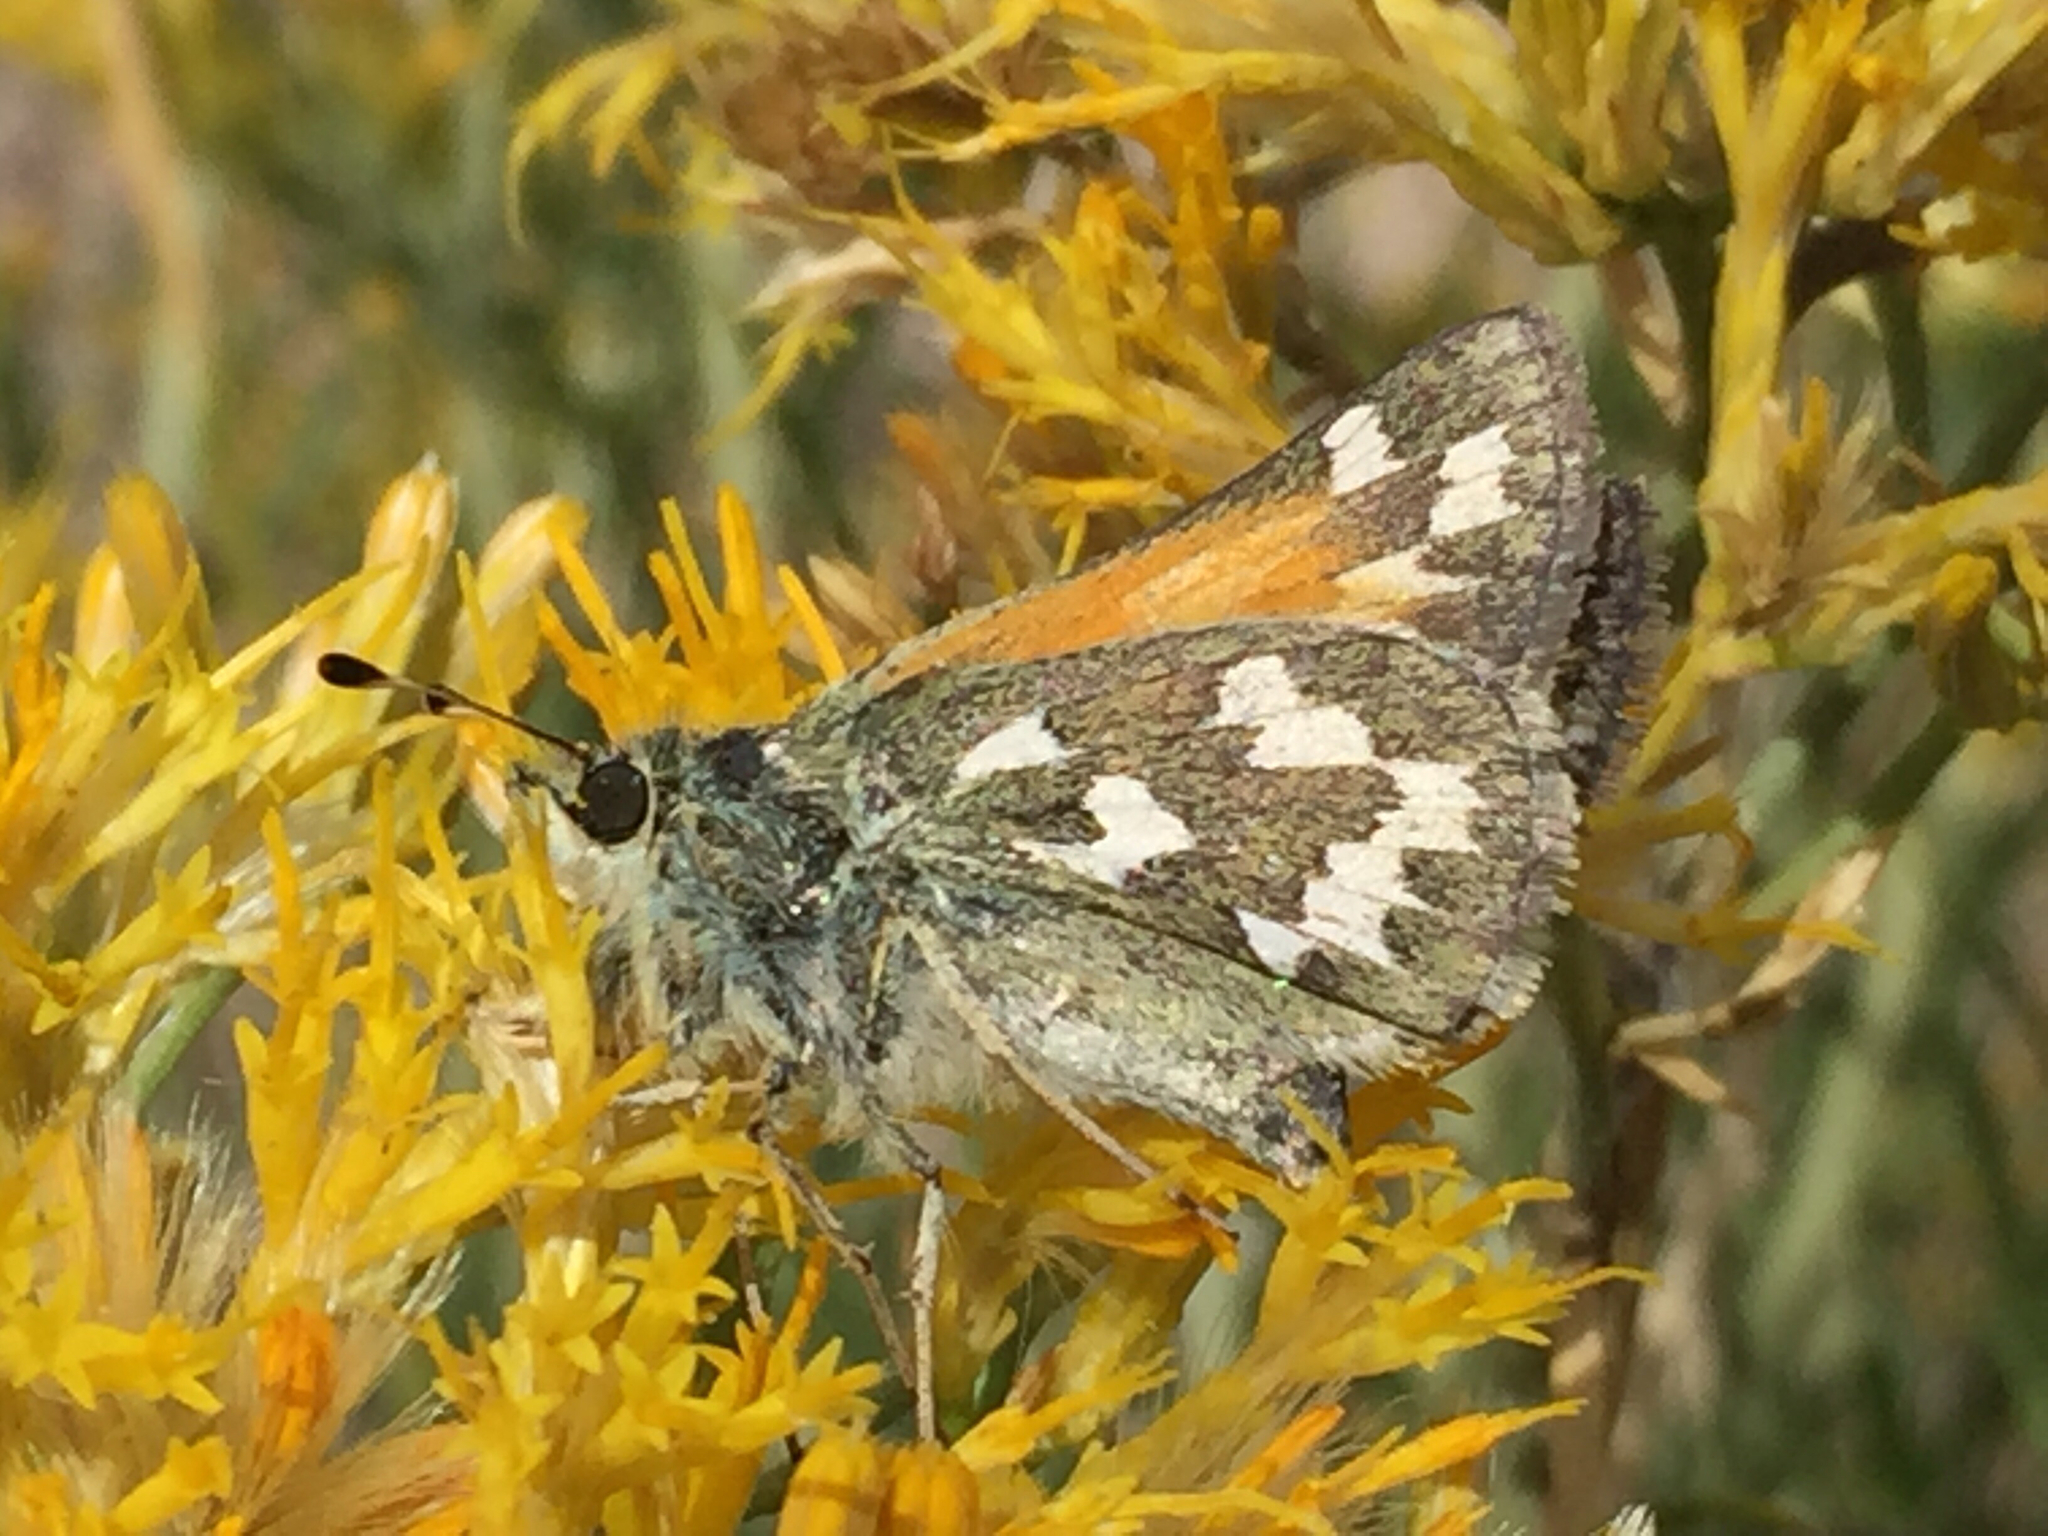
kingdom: Animalia
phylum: Arthropoda
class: Insecta
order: Lepidoptera
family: Hesperiidae
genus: Hesperia
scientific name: Hesperia juba
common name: Juba skipper
